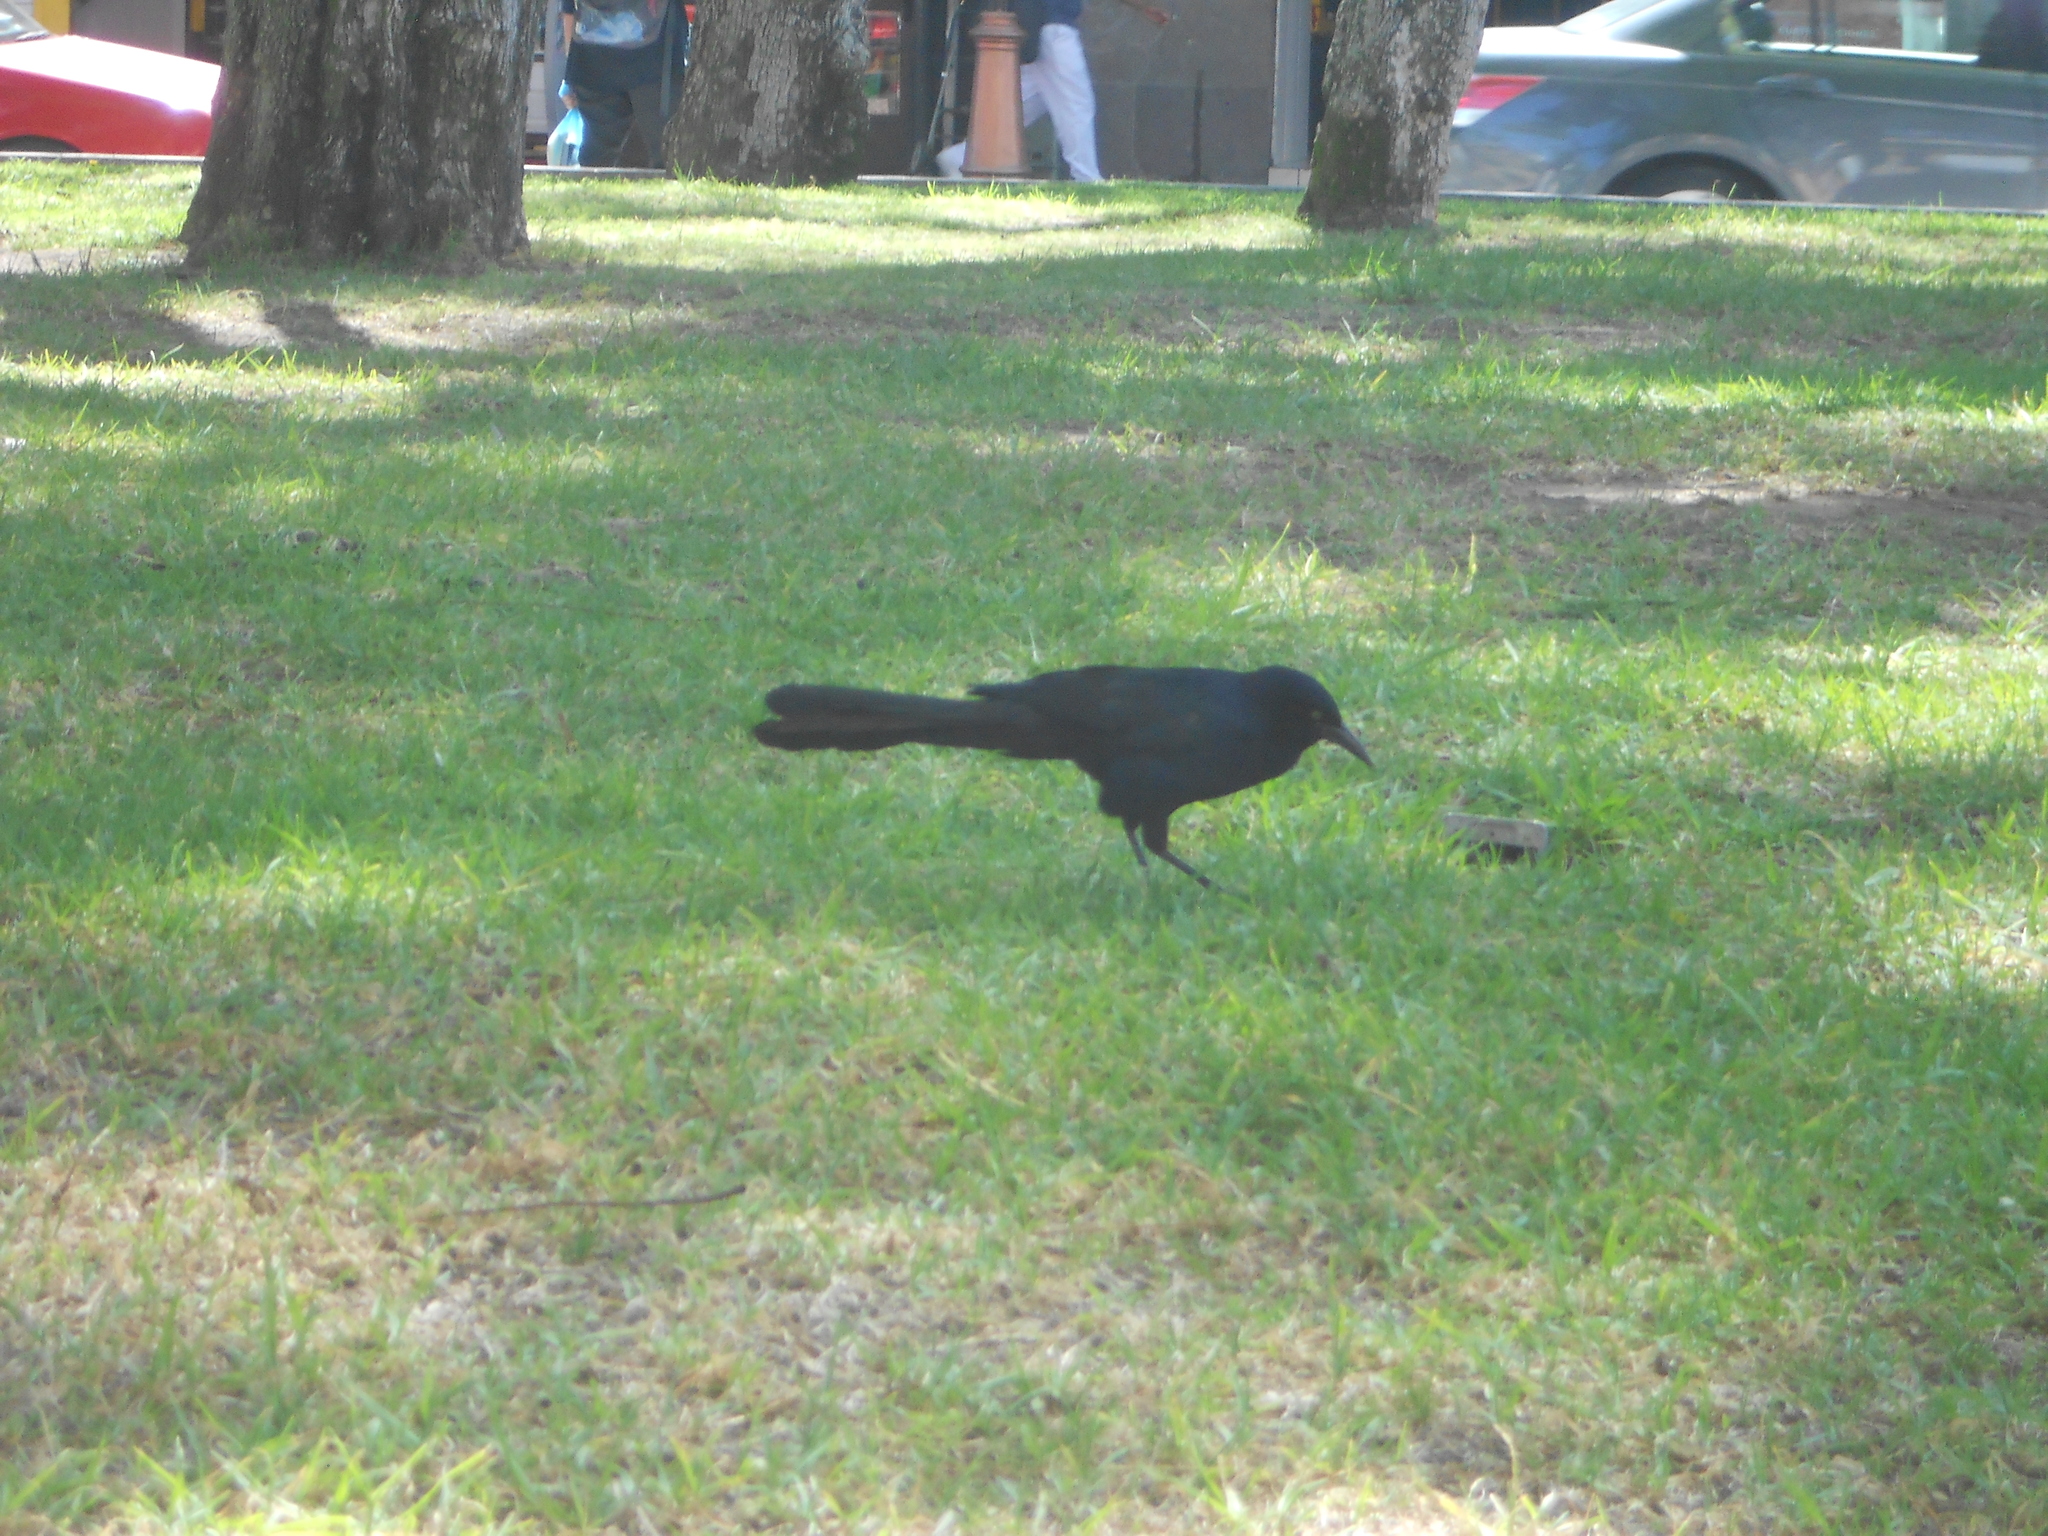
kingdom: Animalia
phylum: Chordata
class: Aves
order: Passeriformes
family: Icteridae
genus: Quiscalus
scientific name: Quiscalus mexicanus
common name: Great-tailed grackle
